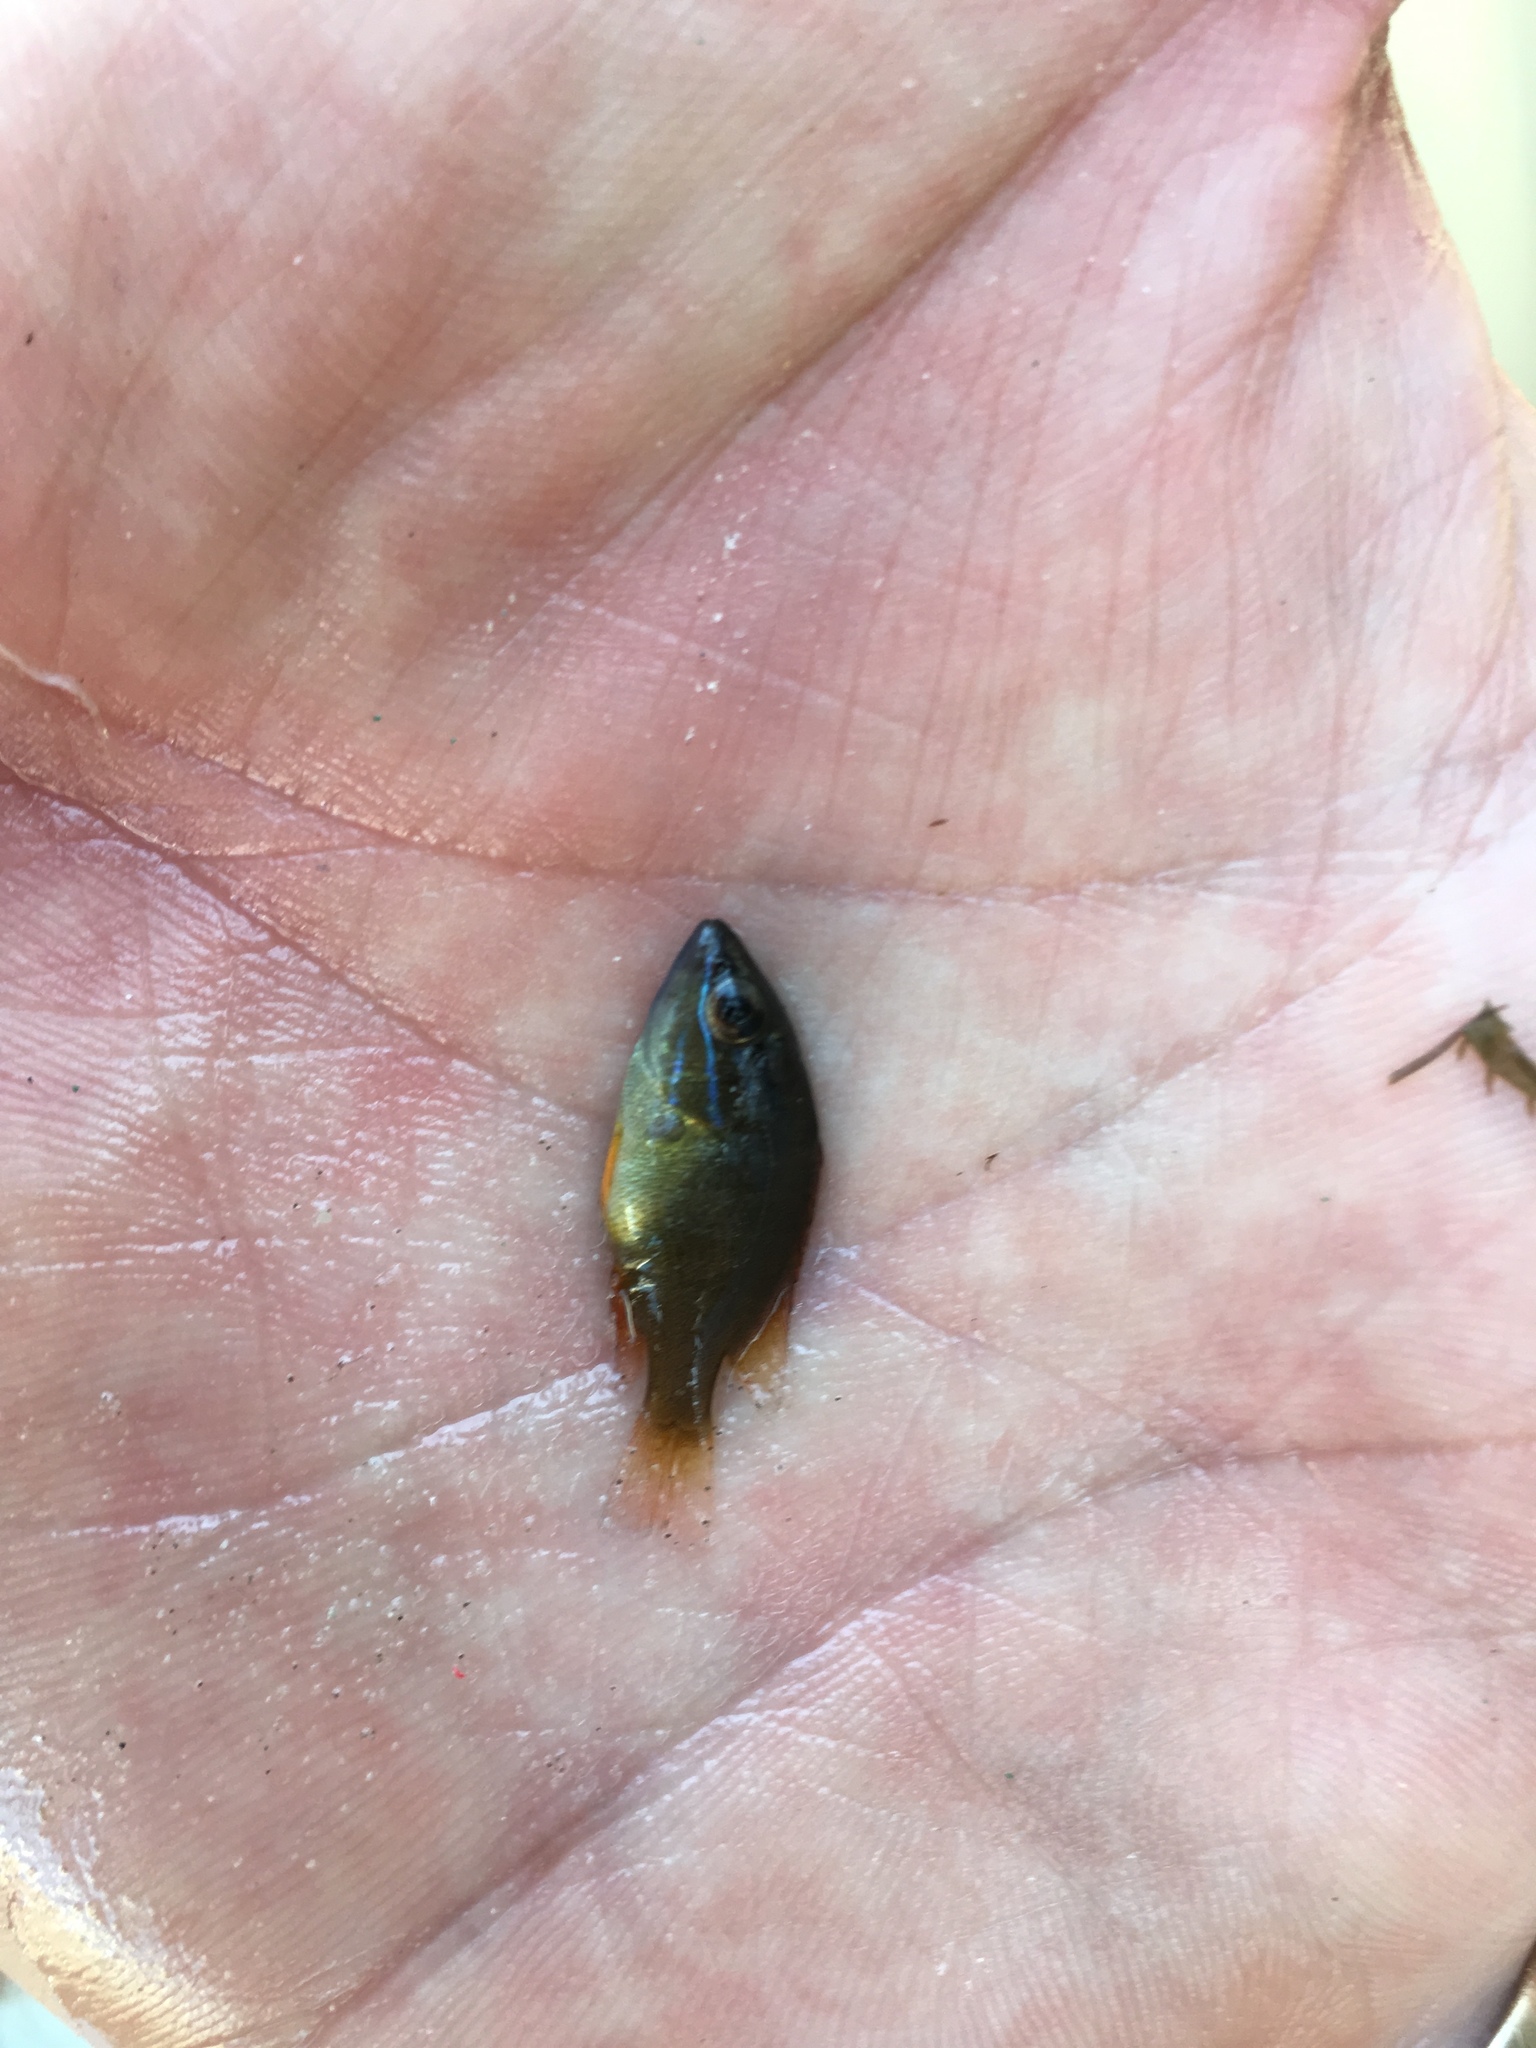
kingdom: Animalia
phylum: Chordata
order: Perciformes
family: Lutjanidae
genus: Lutjanus
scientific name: Lutjanus griseus
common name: Gray snapper
